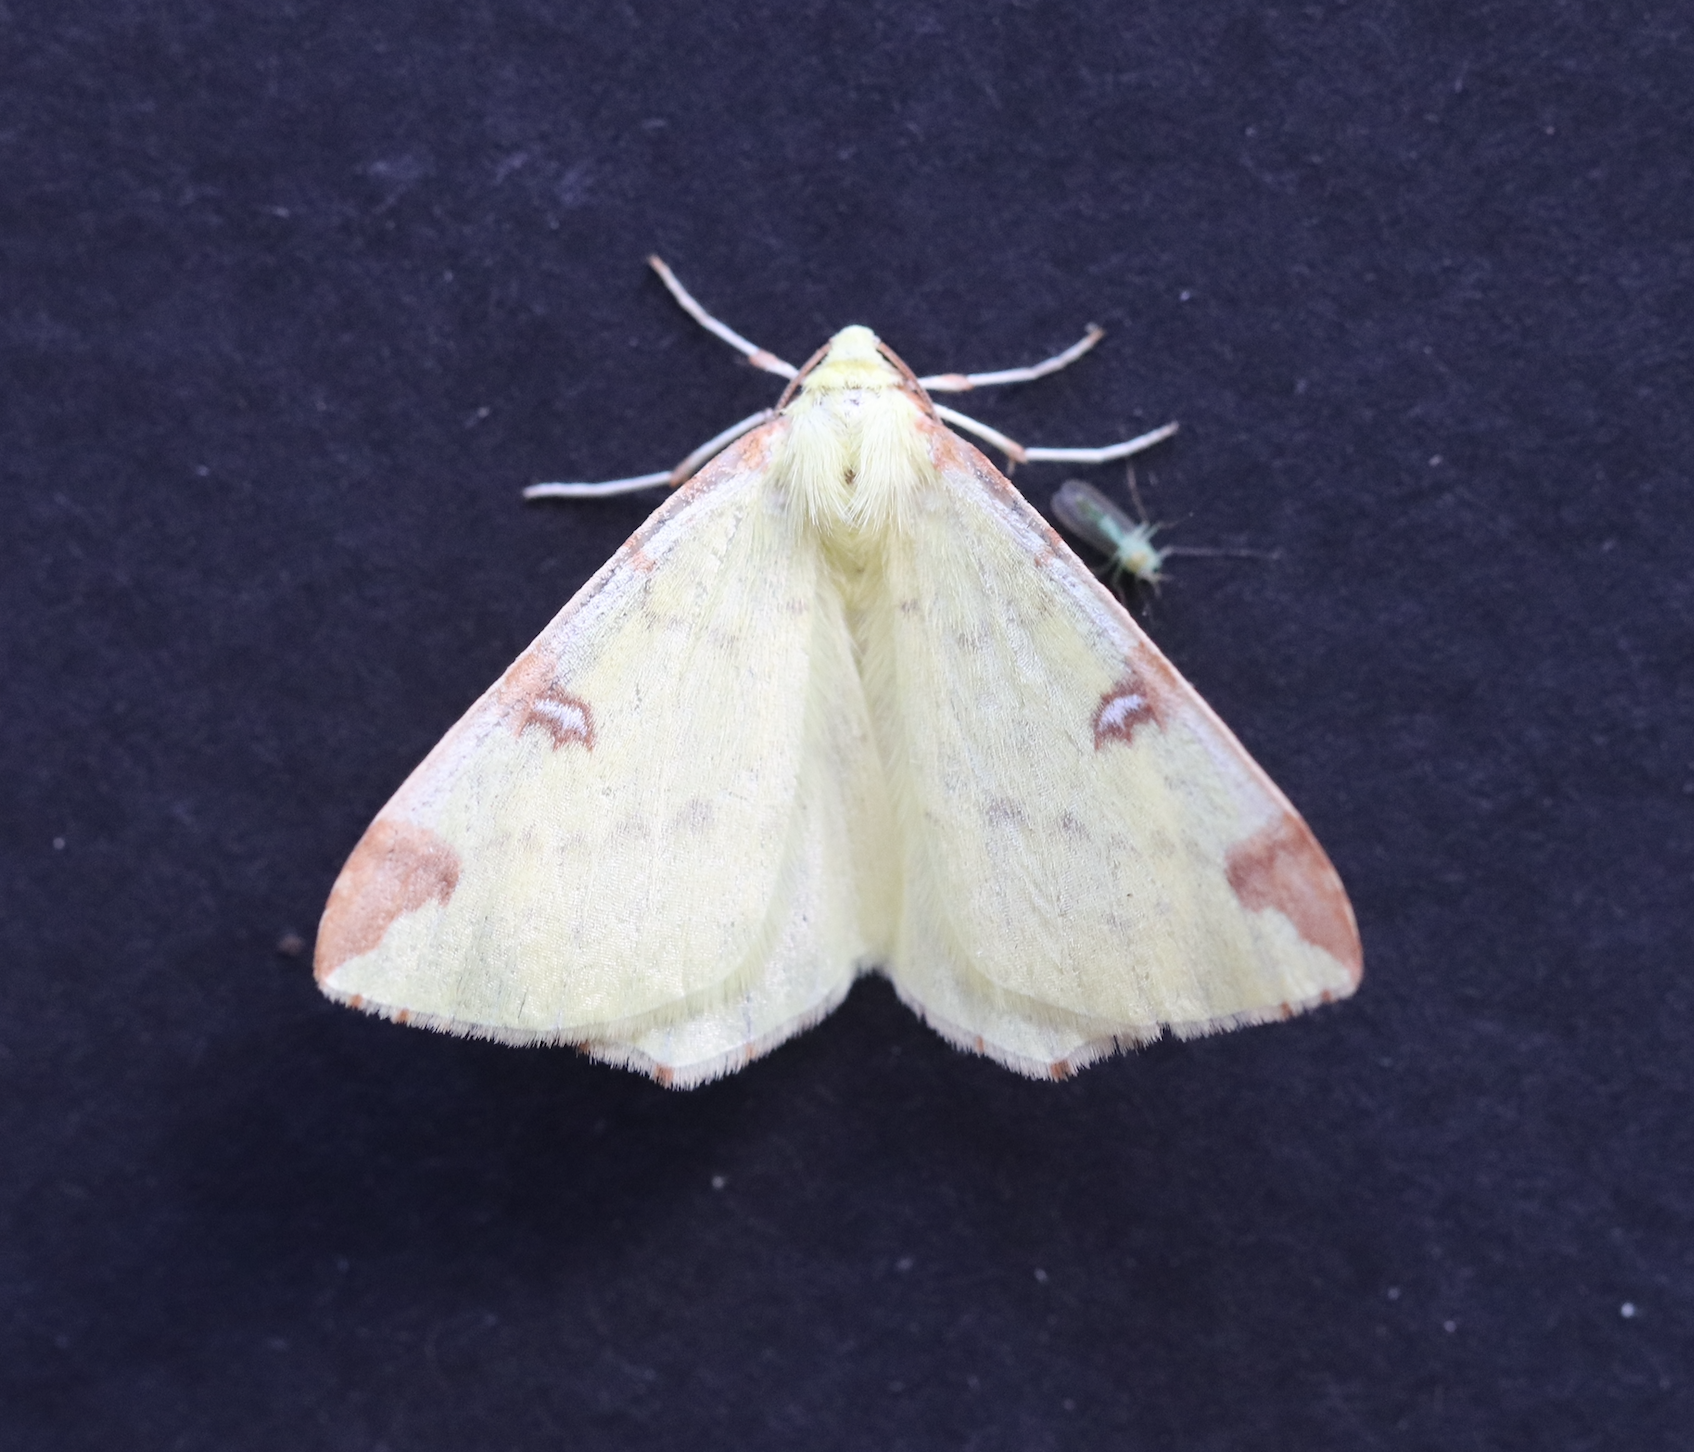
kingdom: Animalia
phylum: Arthropoda
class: Insecta
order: Lepidoptera
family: Geometridae
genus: Opisthograptis
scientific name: Opisthograptis luteolata
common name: Brimstone moth
